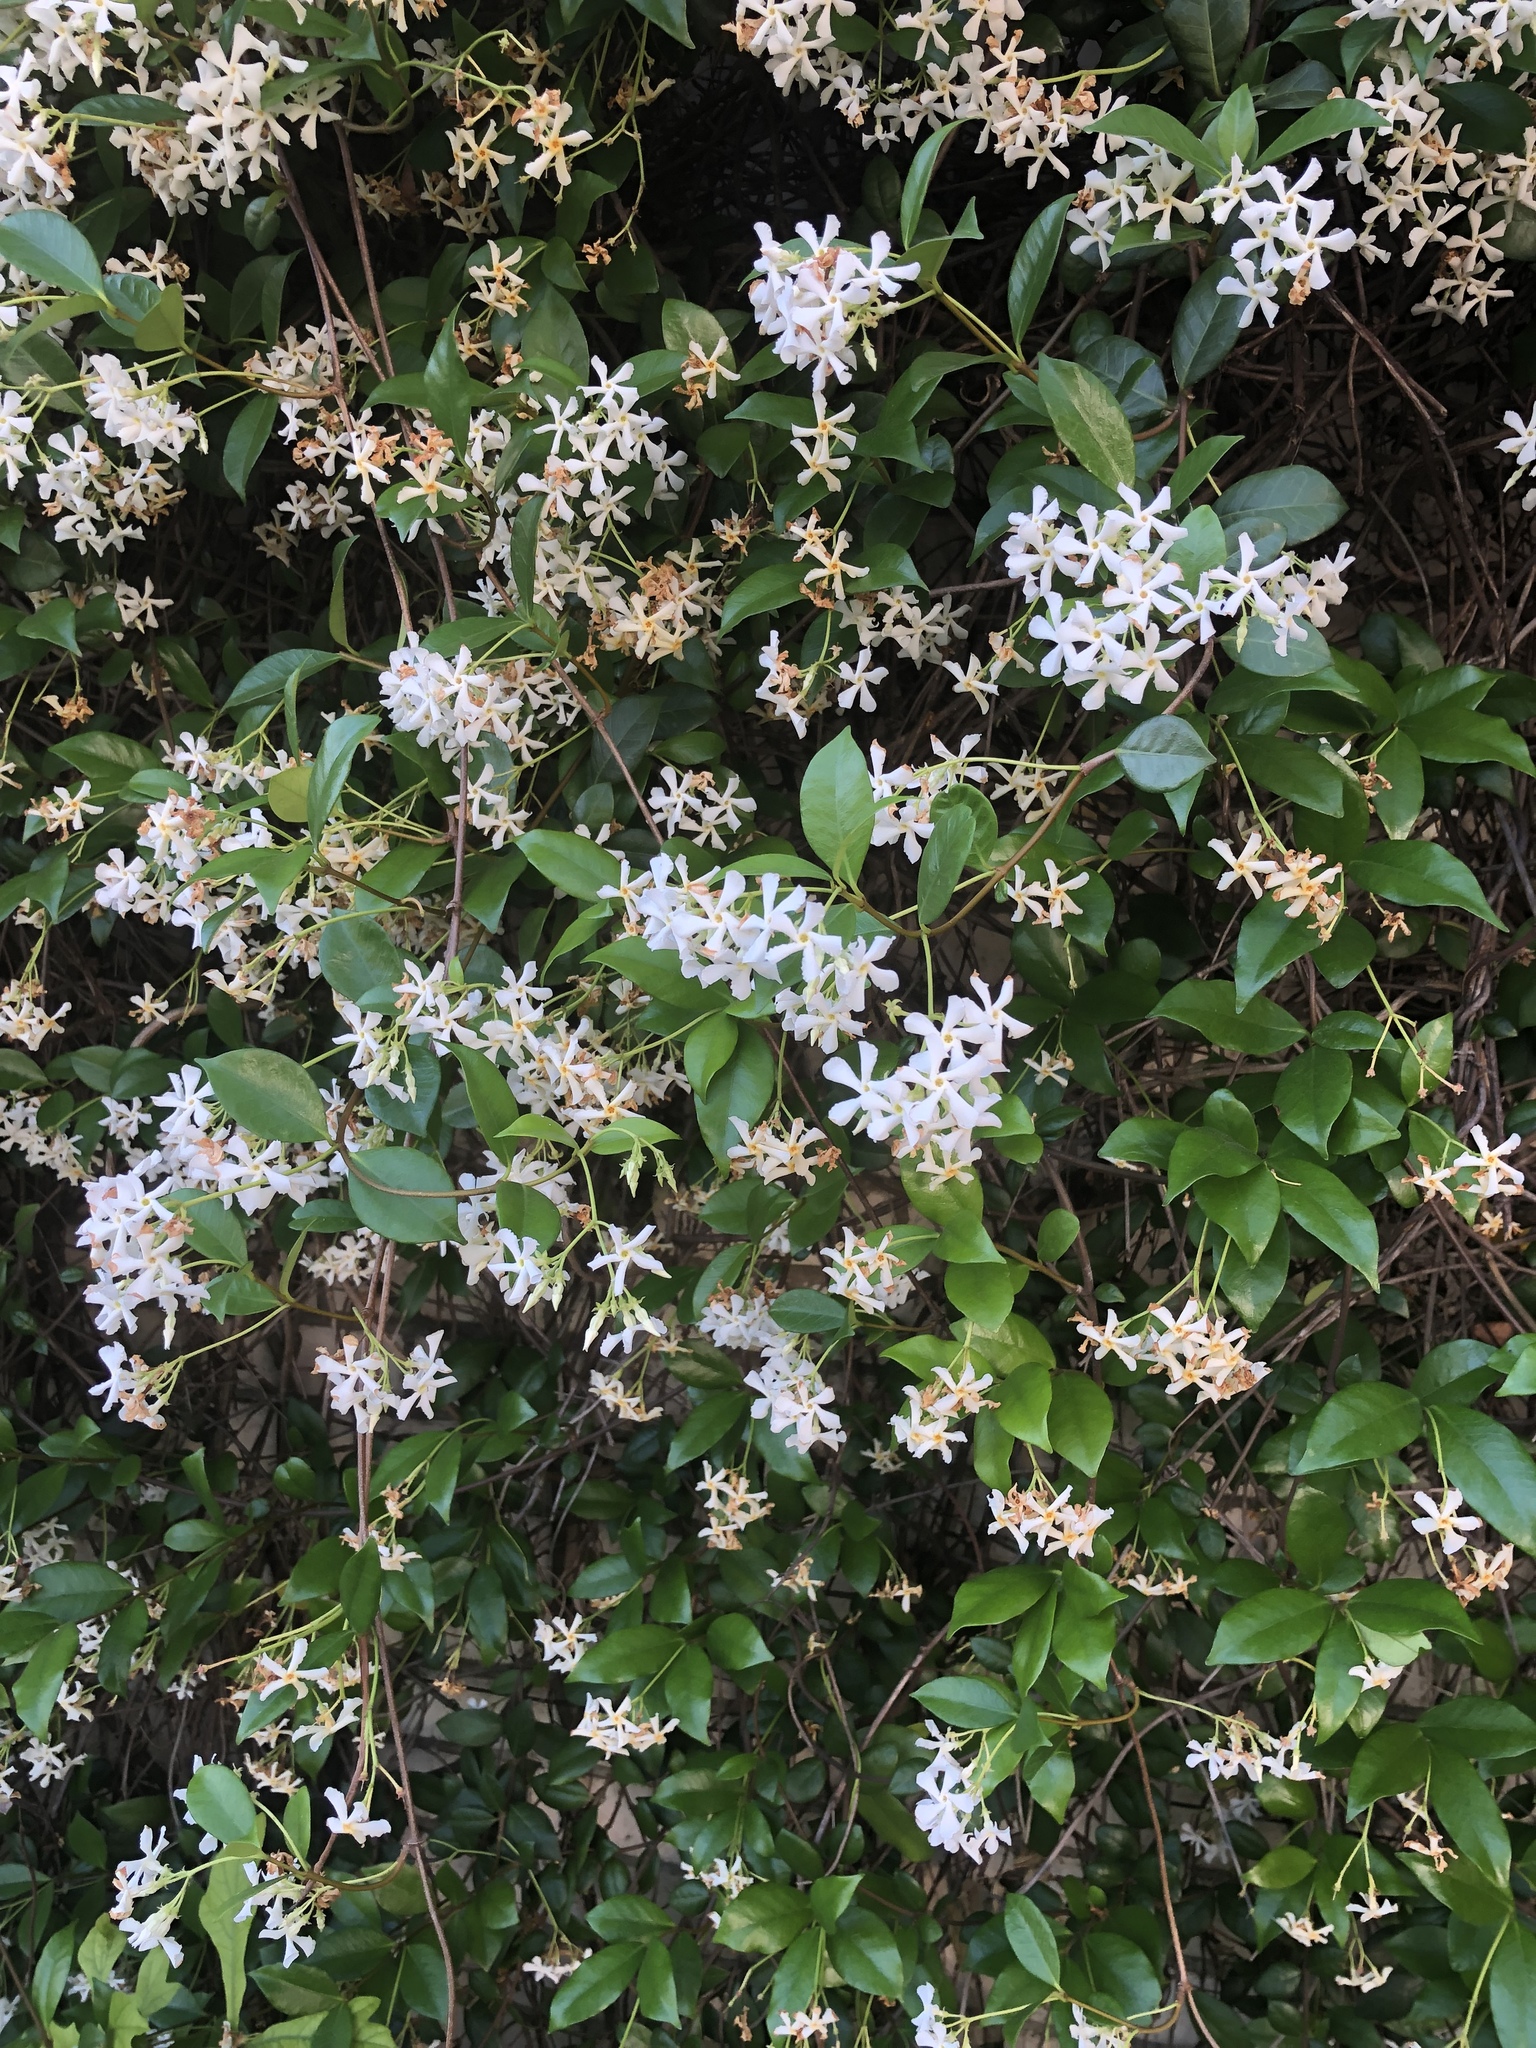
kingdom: Plantae
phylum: Tracheophyta
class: Magnoliopsida
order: Gentianales
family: Apocynaceae
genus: Trachelospermum
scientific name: Trachelospermum jasminoides
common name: Confederate jasmine
